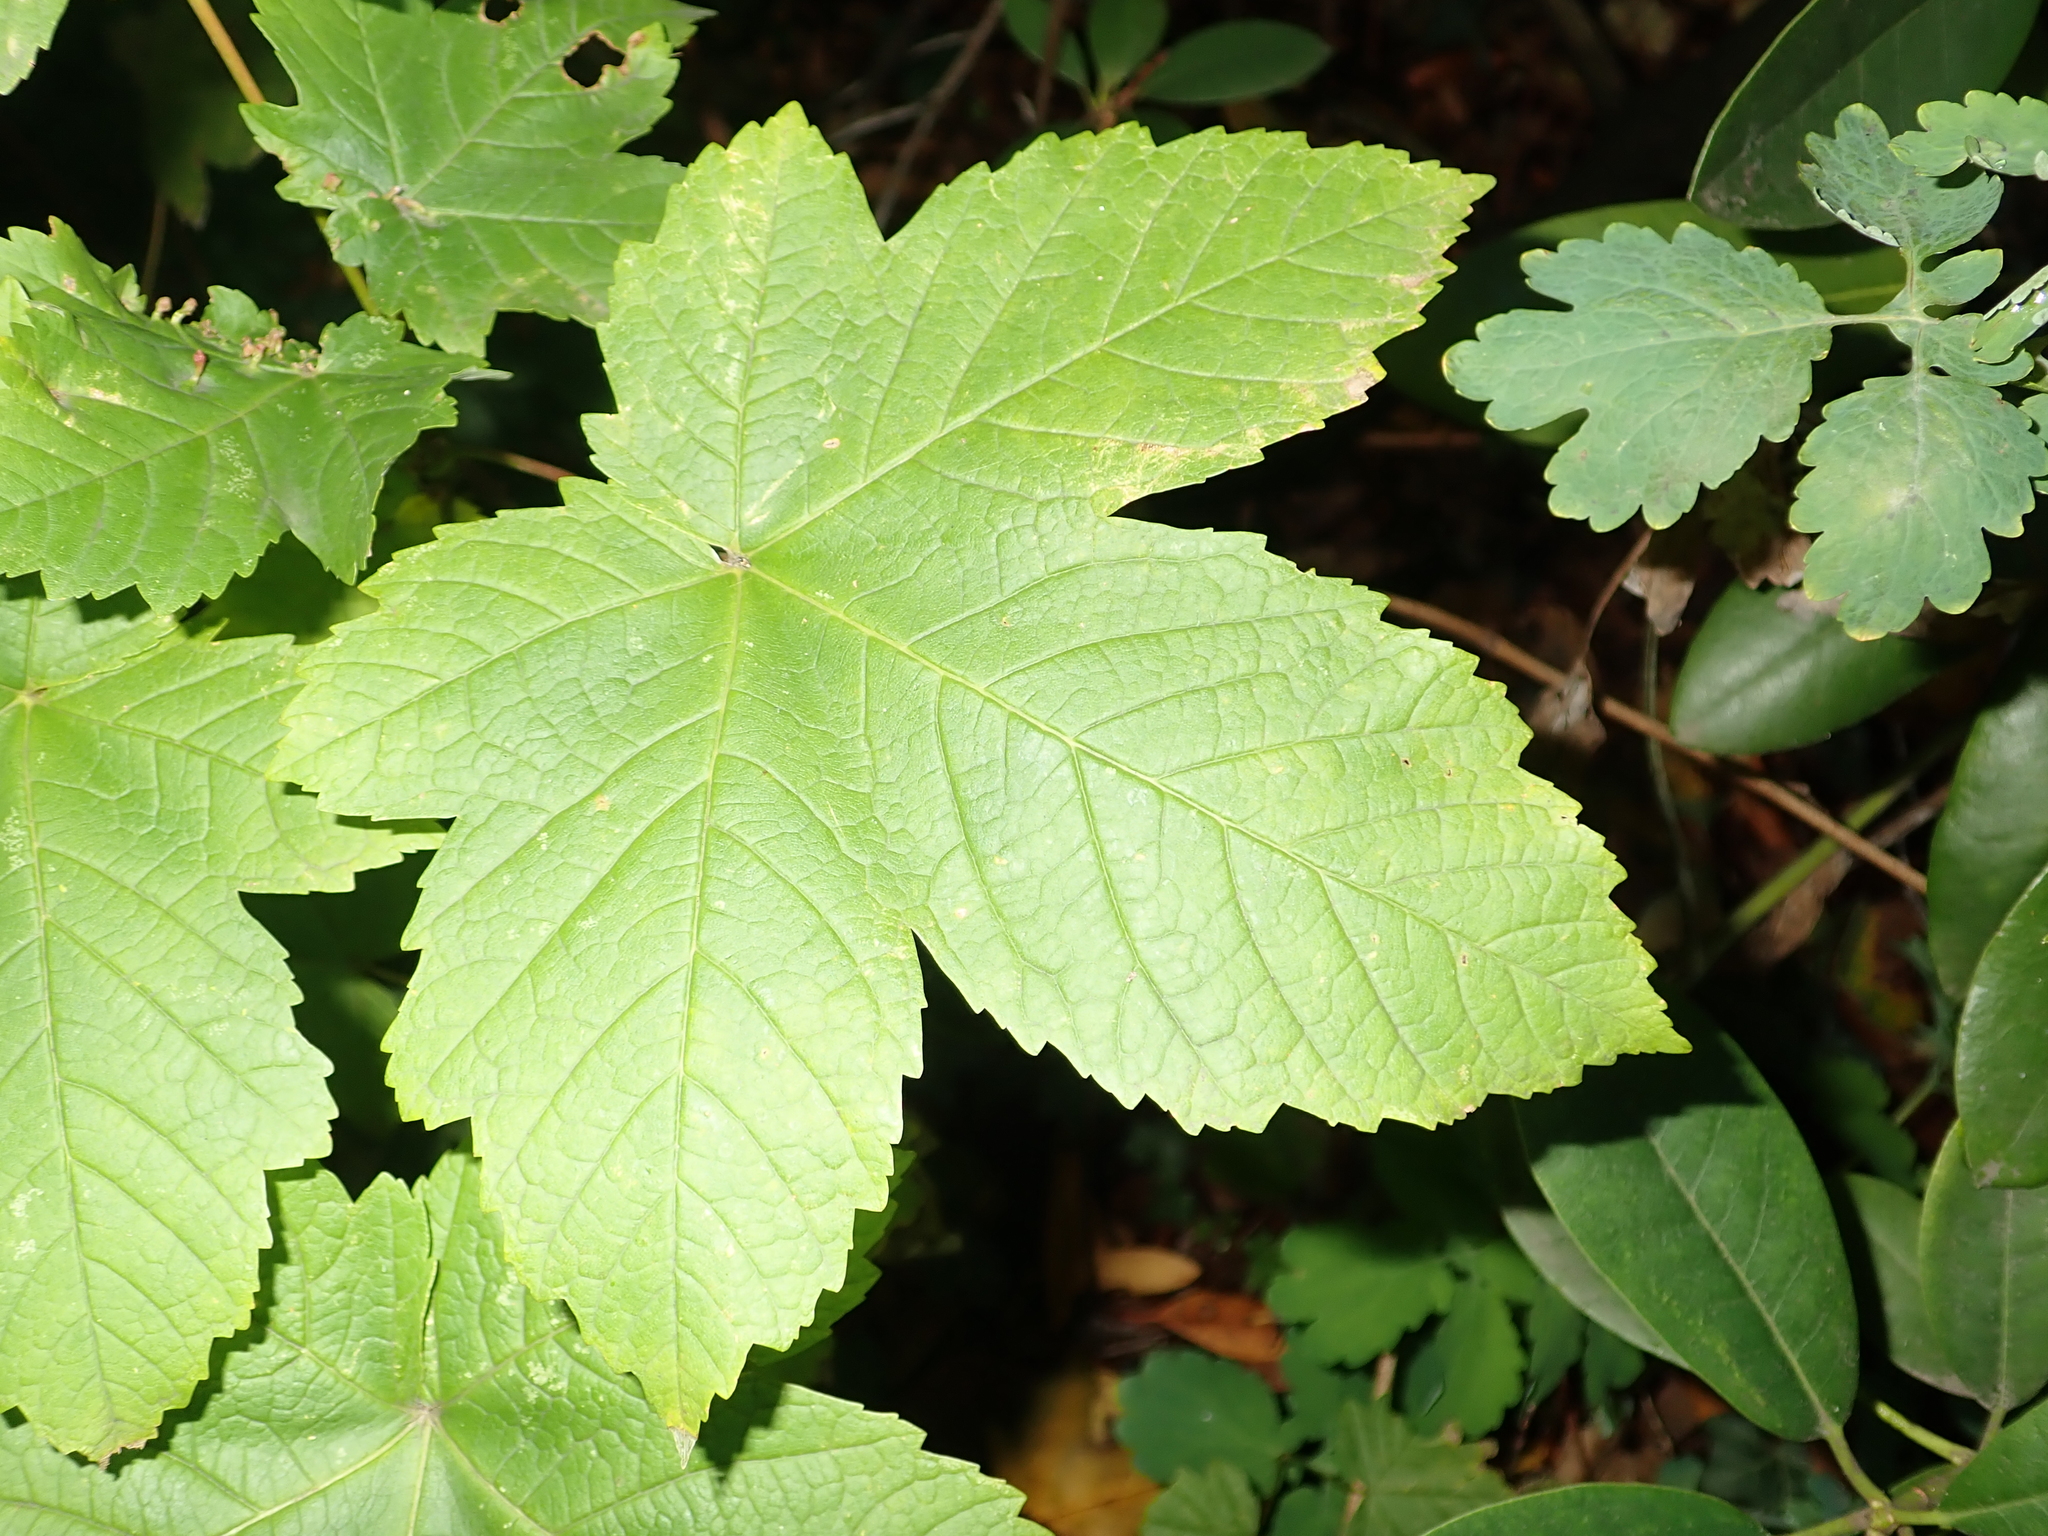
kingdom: Plantae
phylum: Tracheophyta
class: Magnoliopsida
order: Sapindales
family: Sapindaceae
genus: Acer
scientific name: Acer pseudoplatanus
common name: Sycamore
